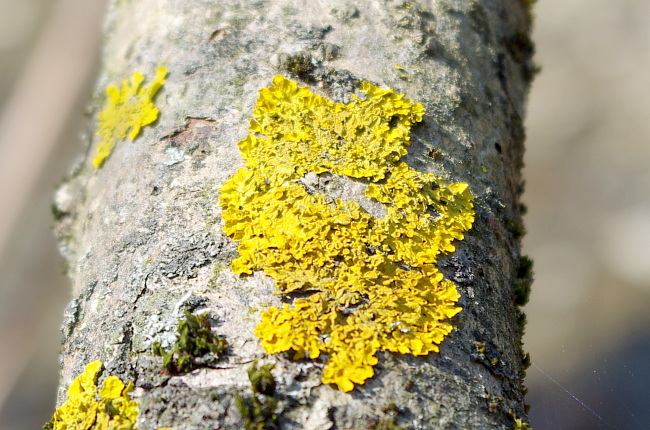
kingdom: Fungi
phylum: Ascomycota
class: Lecanoromycetes
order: Teloschistales
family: Teloschistaceae
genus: Xanthoria
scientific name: Xanthoria parietina
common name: Common orange lichen
